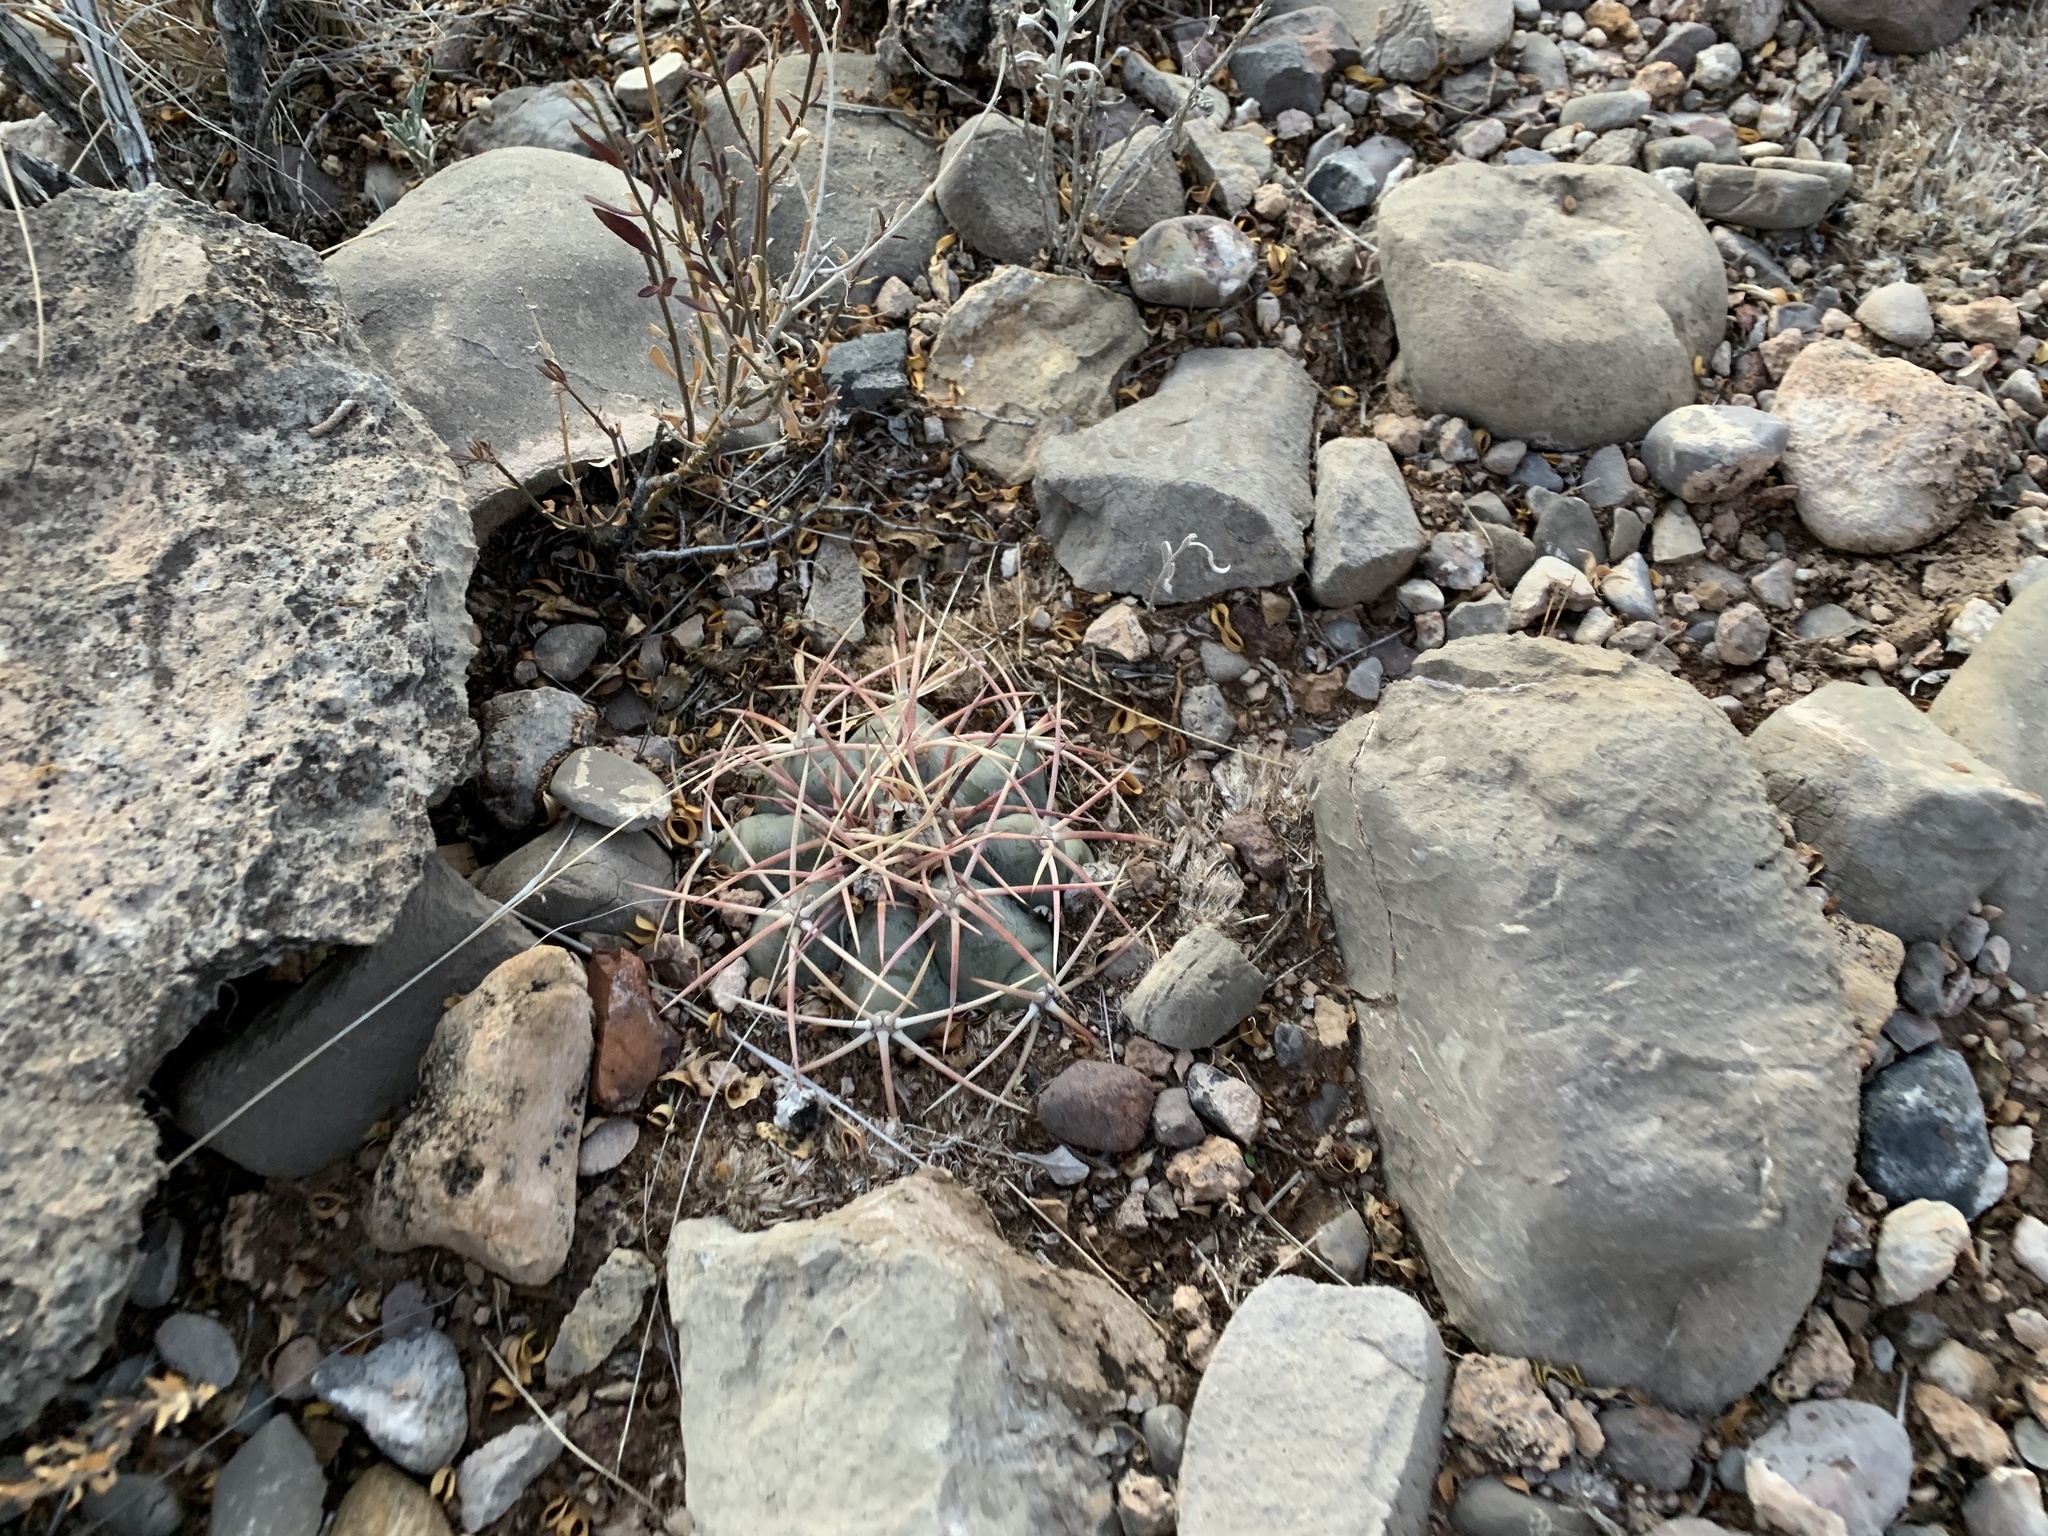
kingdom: Plantae
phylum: Tracheophyta
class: Magnoliopsida
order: Caryophyllales
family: Cactaceae
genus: Echinocactus
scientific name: Echinocactus horizonthalonius
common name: Devilshead
